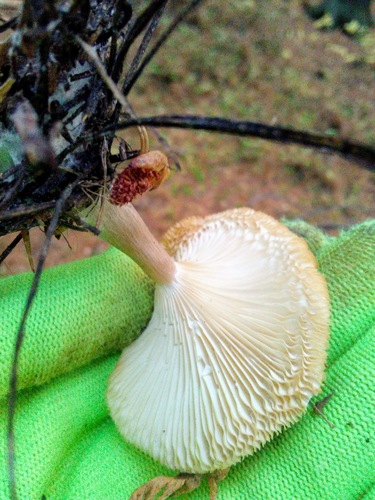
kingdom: Fungi
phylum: Basidiomycota
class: Agaricomycetes
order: Agaricales
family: Tricholomataceae
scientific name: Tricholomataceae
